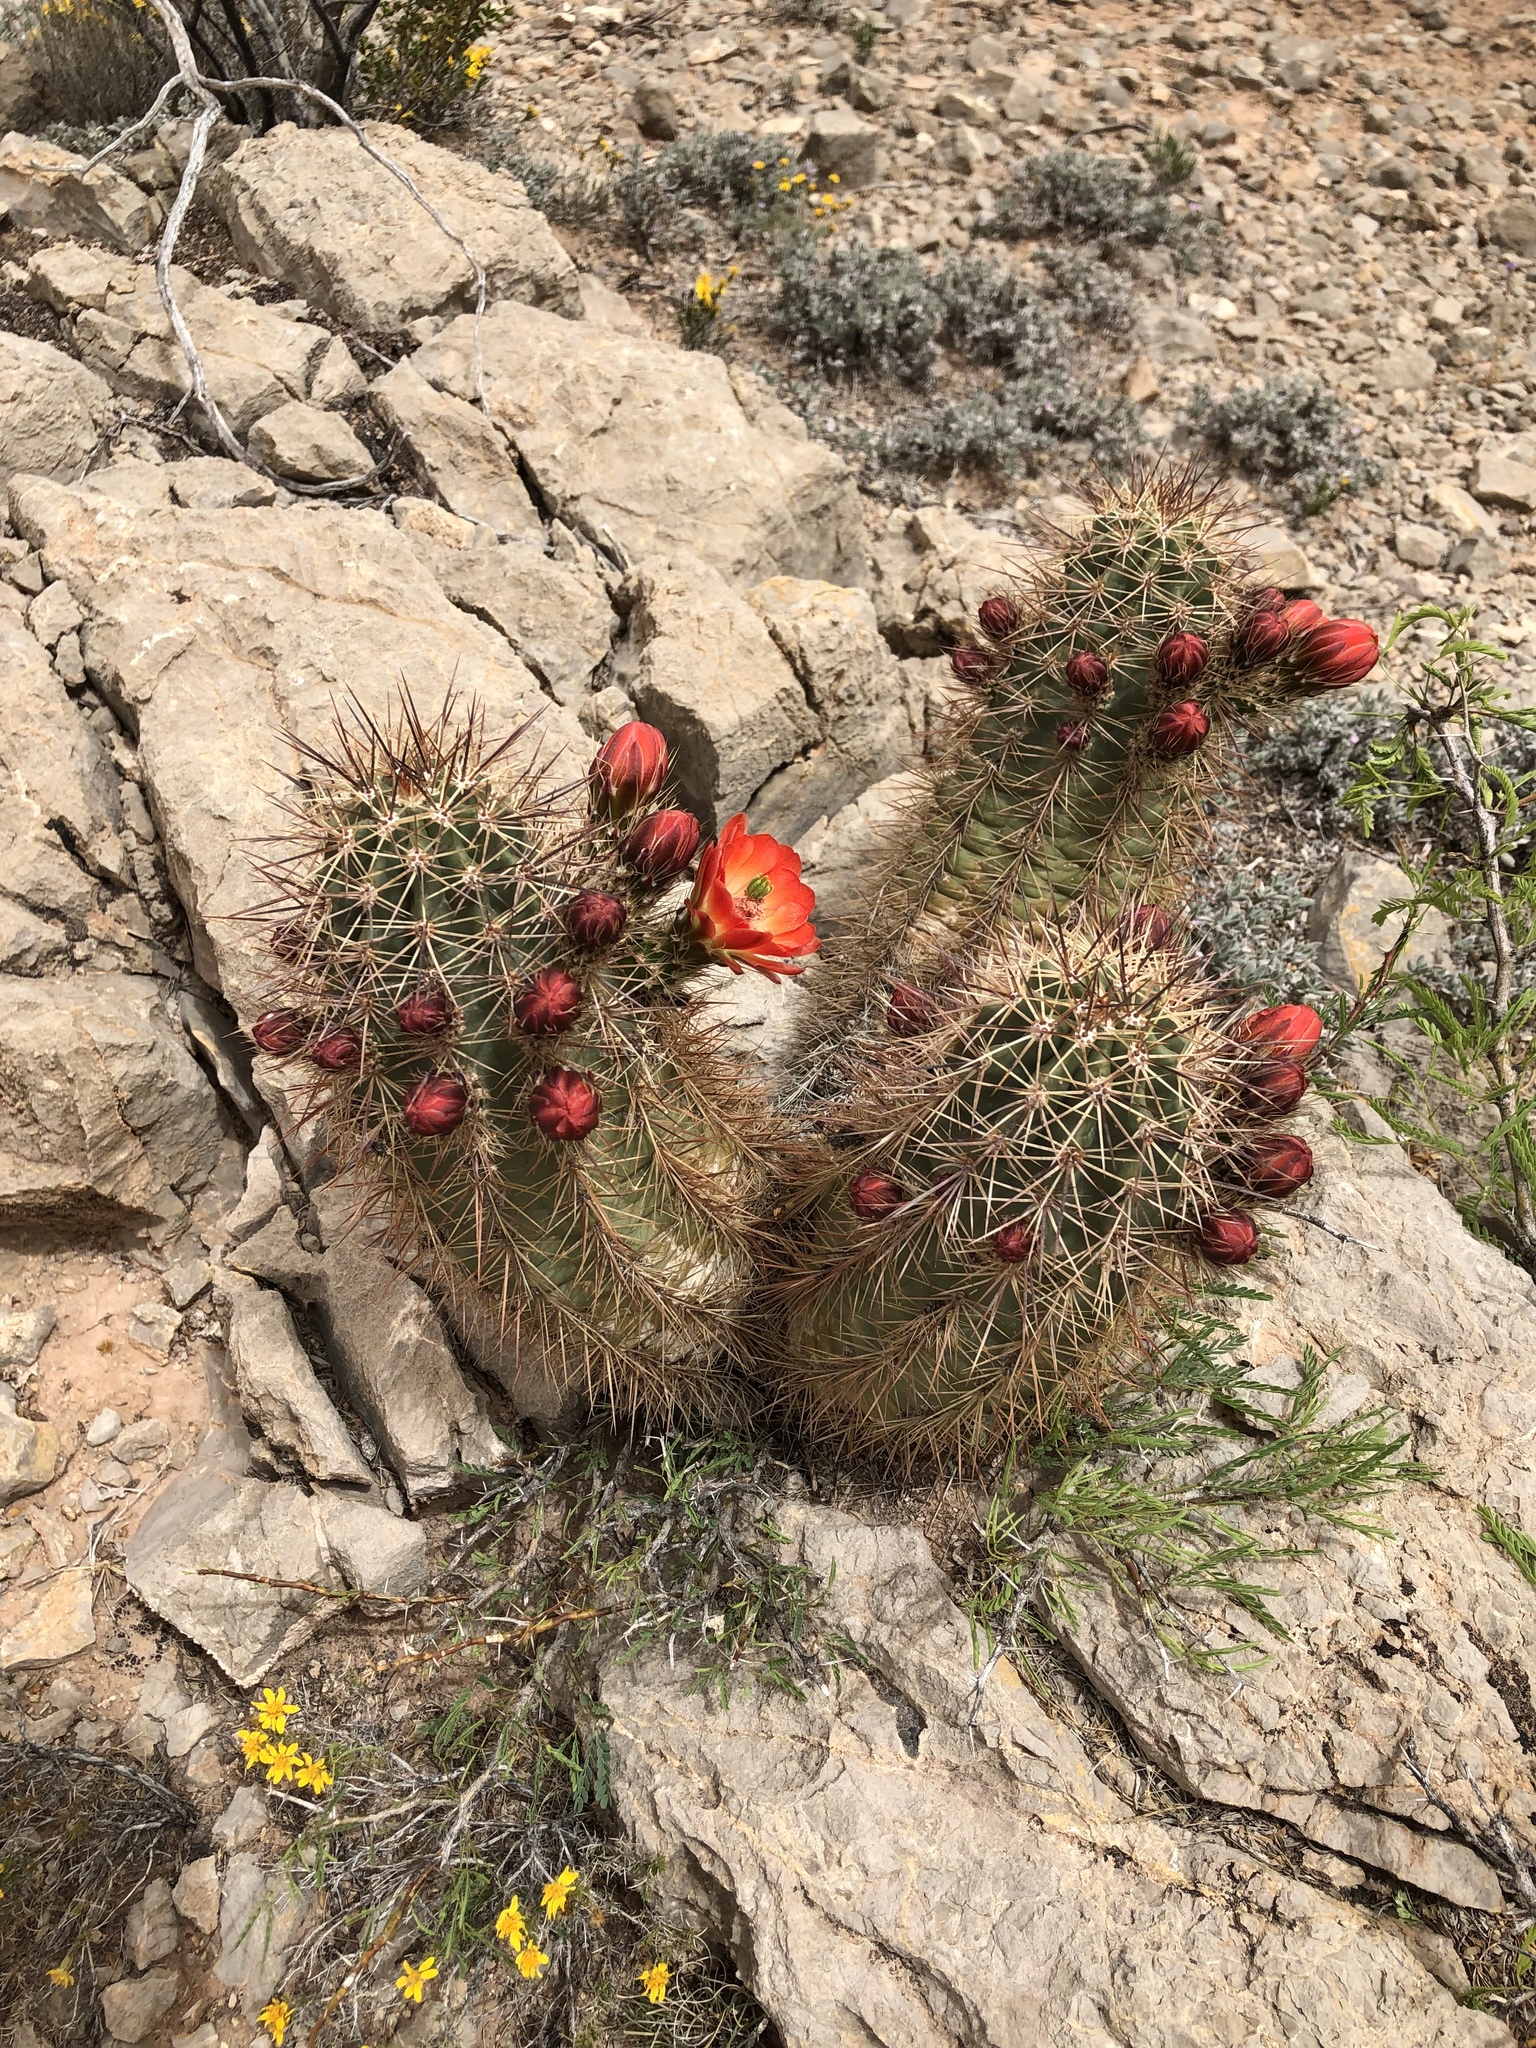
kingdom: Plantae
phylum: Tracheophyta
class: Magnoliopsida
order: Caryophyllales
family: Cactaceae
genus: Echinocereus
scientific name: Echinocereus coccineus
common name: Scarlet hedgehog cactus
